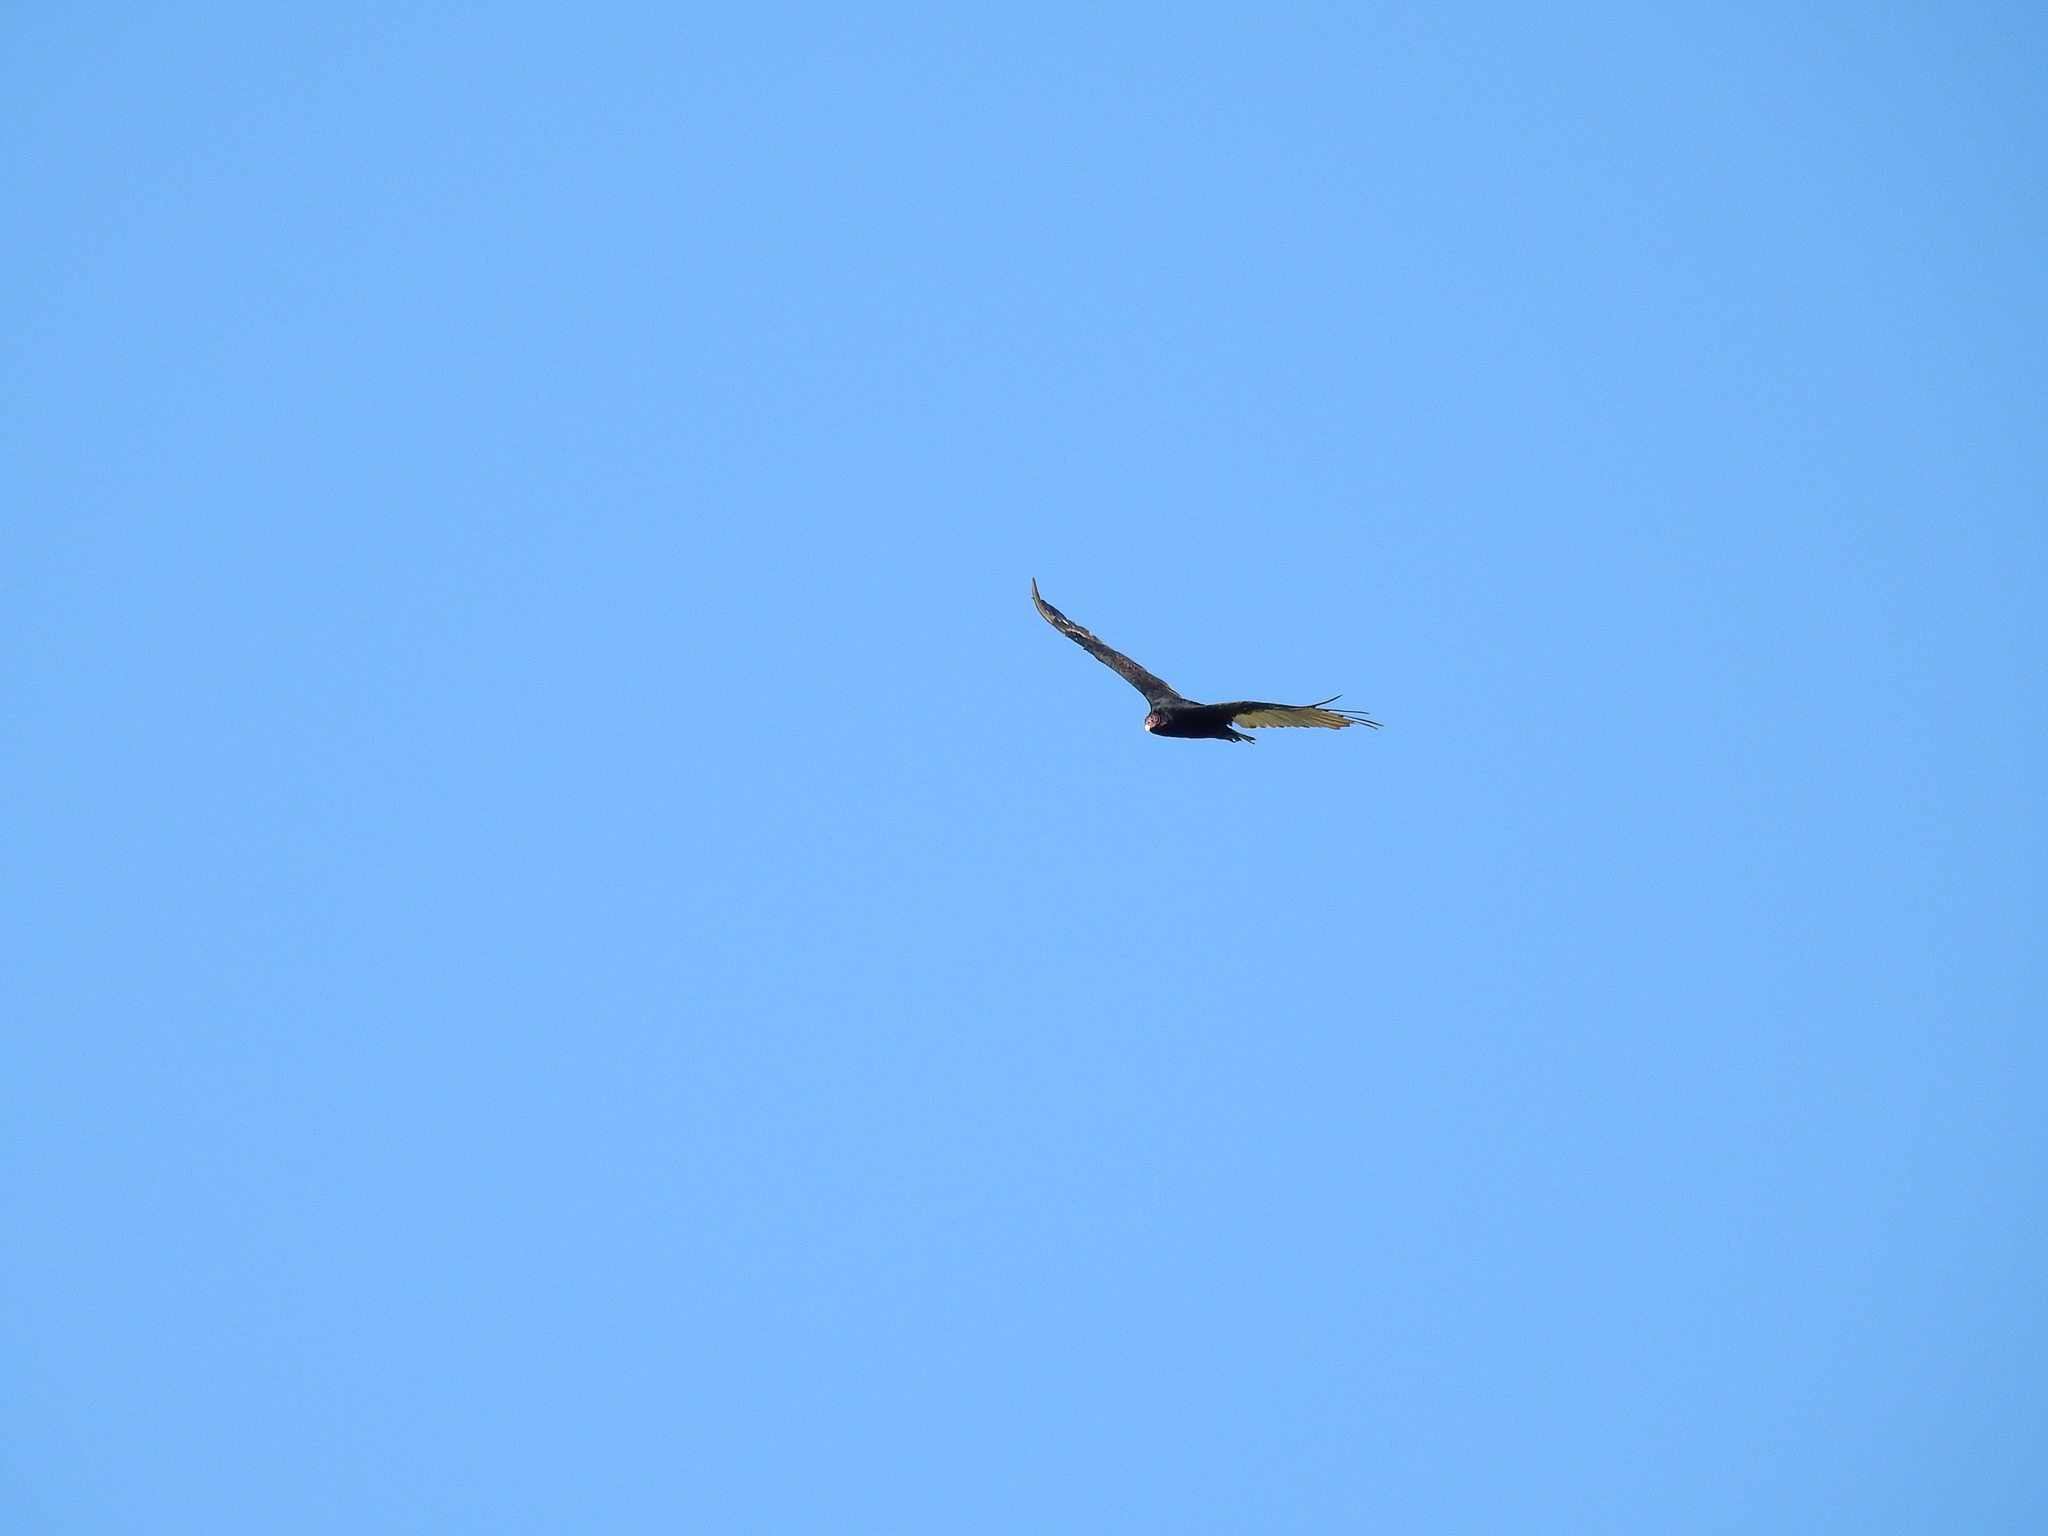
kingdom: Animalia
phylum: Chordata
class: Aves
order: Accipitriformes
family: Cathartidae
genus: Cathartes
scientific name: Cathartes aura
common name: Turkey vulture
